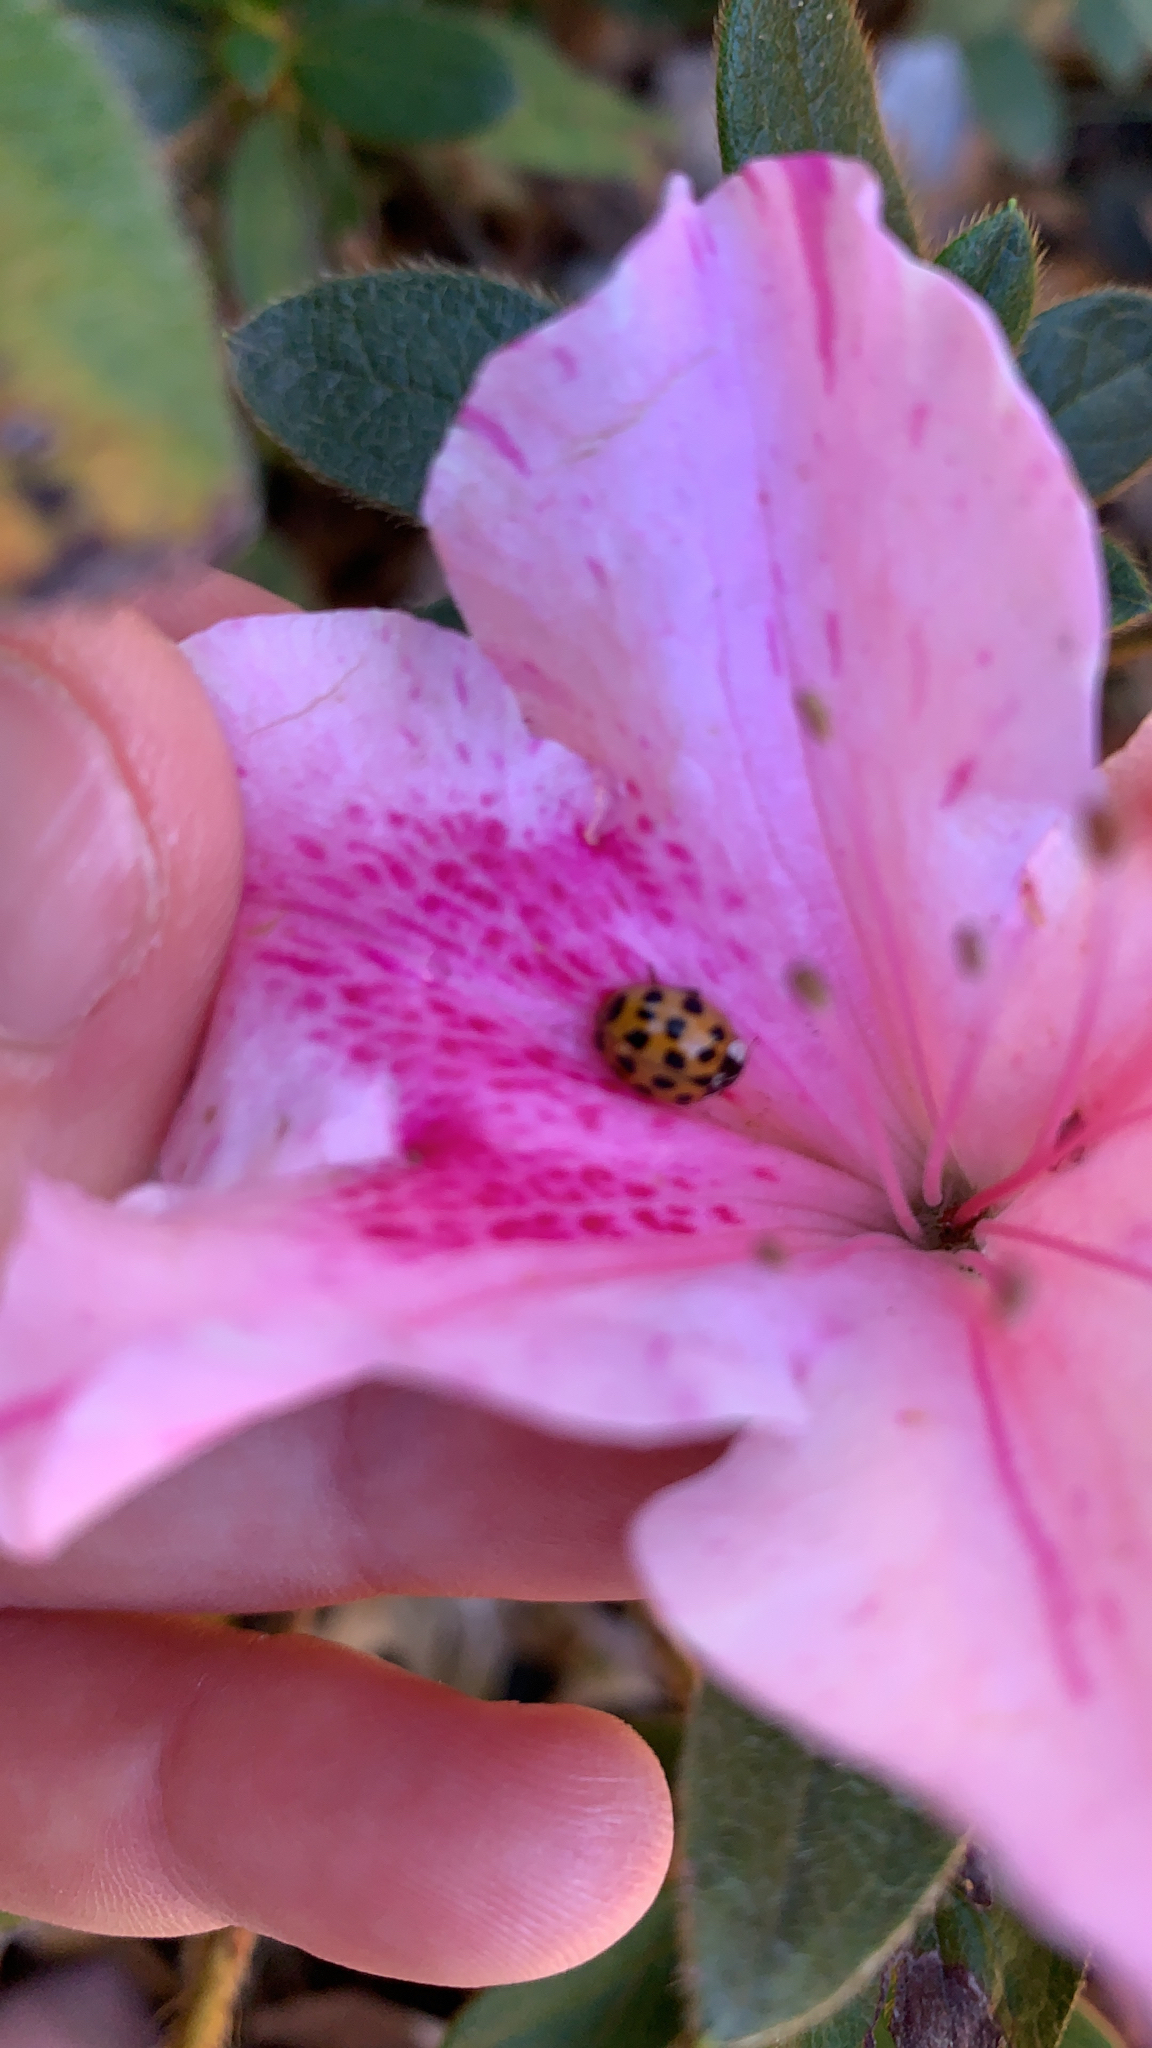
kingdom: Animalia
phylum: Arthropoda
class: Insecta
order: Coleoptera
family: Coccinellidae
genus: Harmonia
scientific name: Harmonia axyridis
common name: Harlequin ladybird
